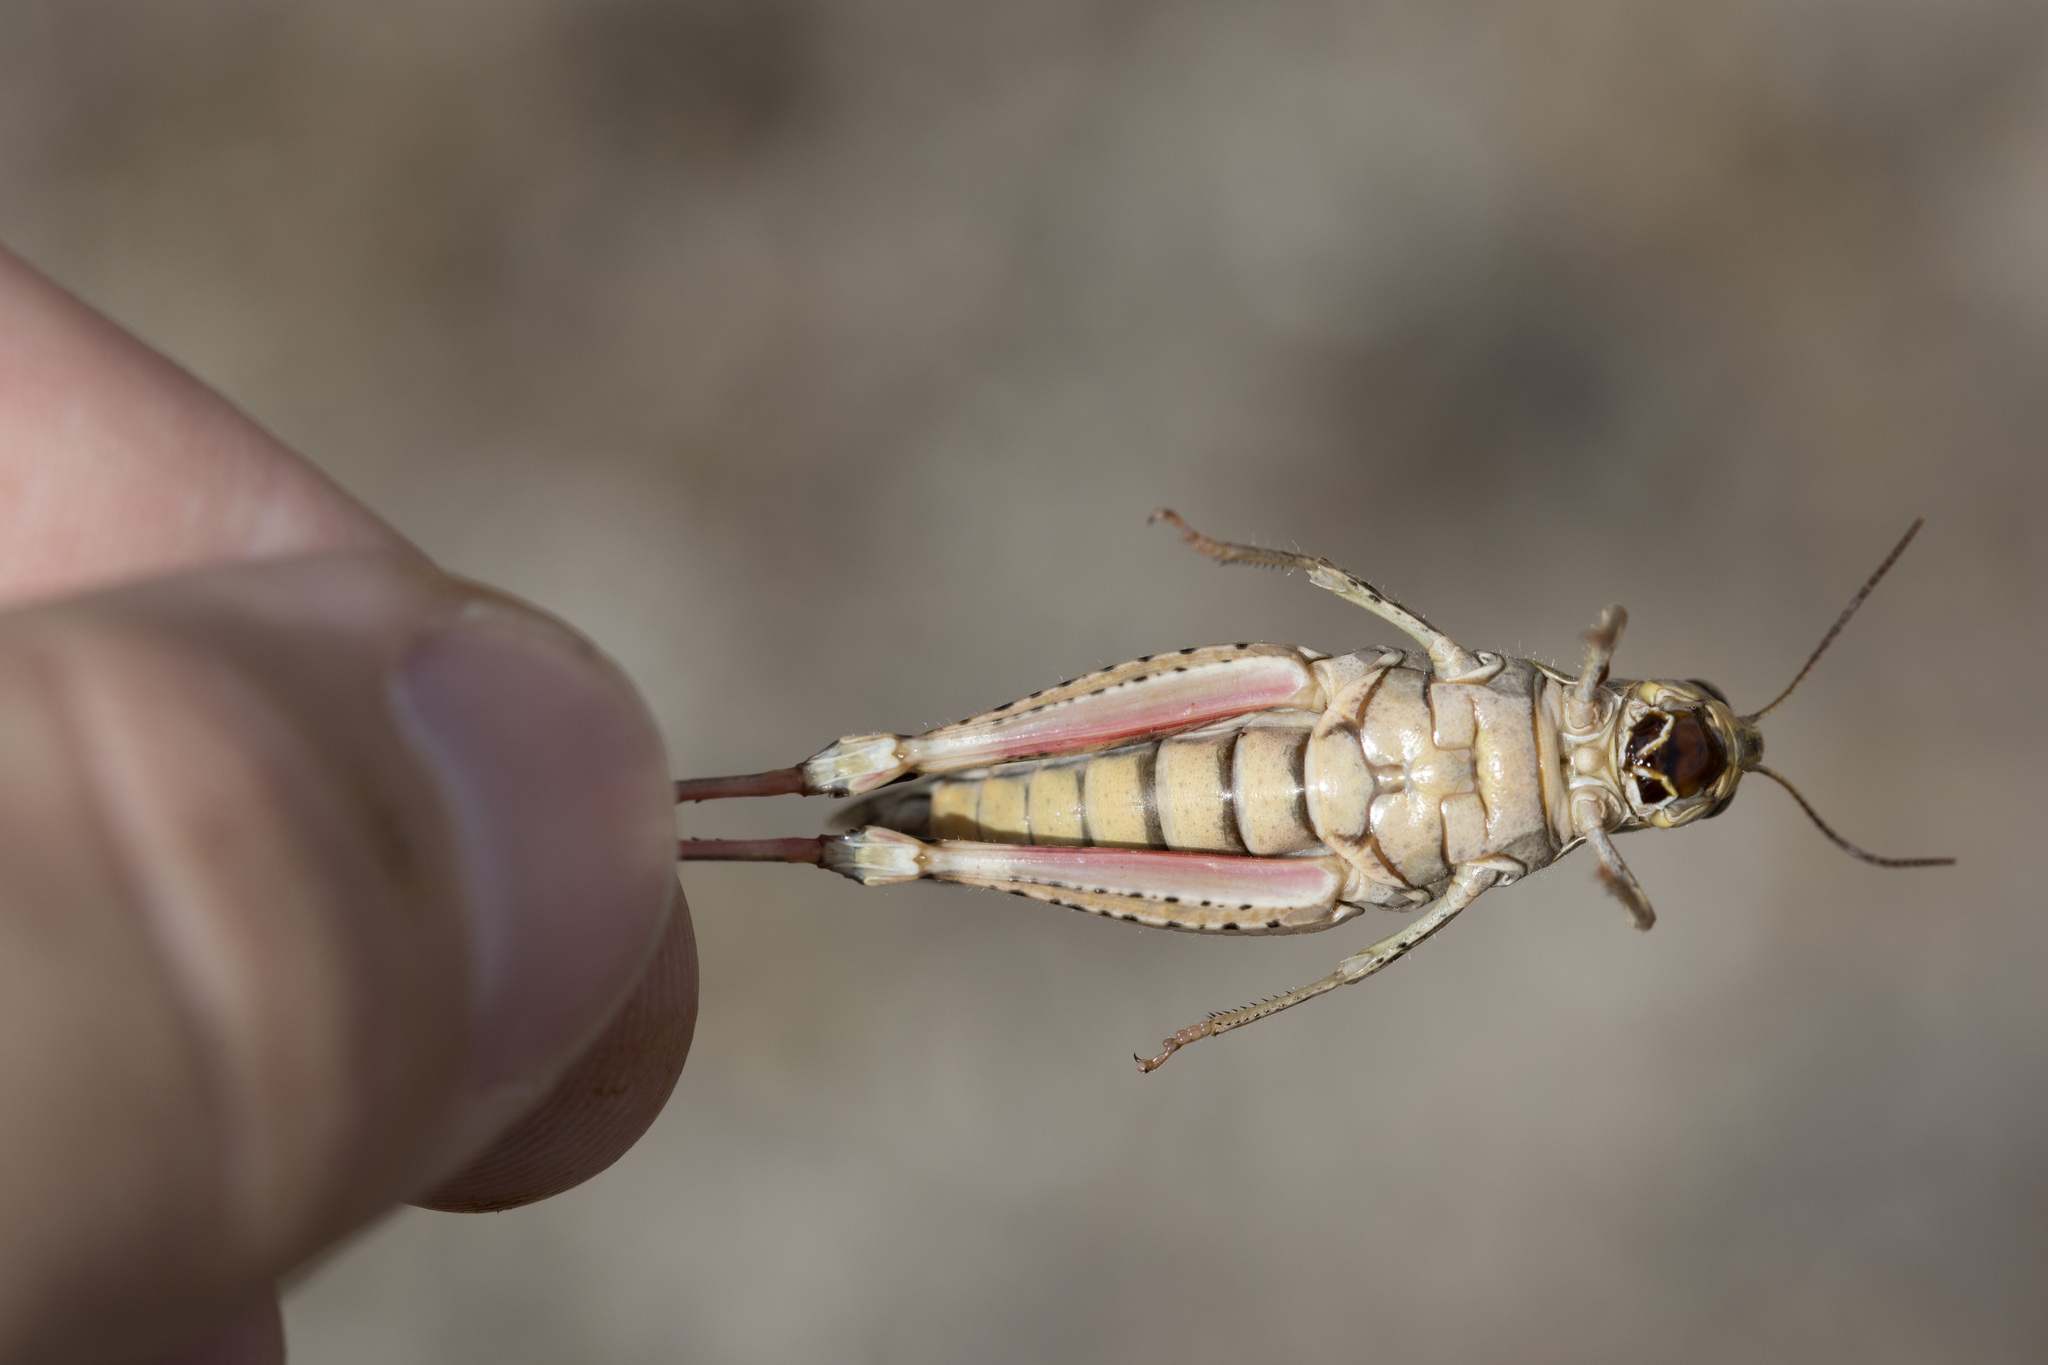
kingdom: Animalia
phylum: Arthropoda
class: Insecta
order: Orthoptera
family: Acrididae
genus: Calliptamus
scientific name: Calliptamus italicus
